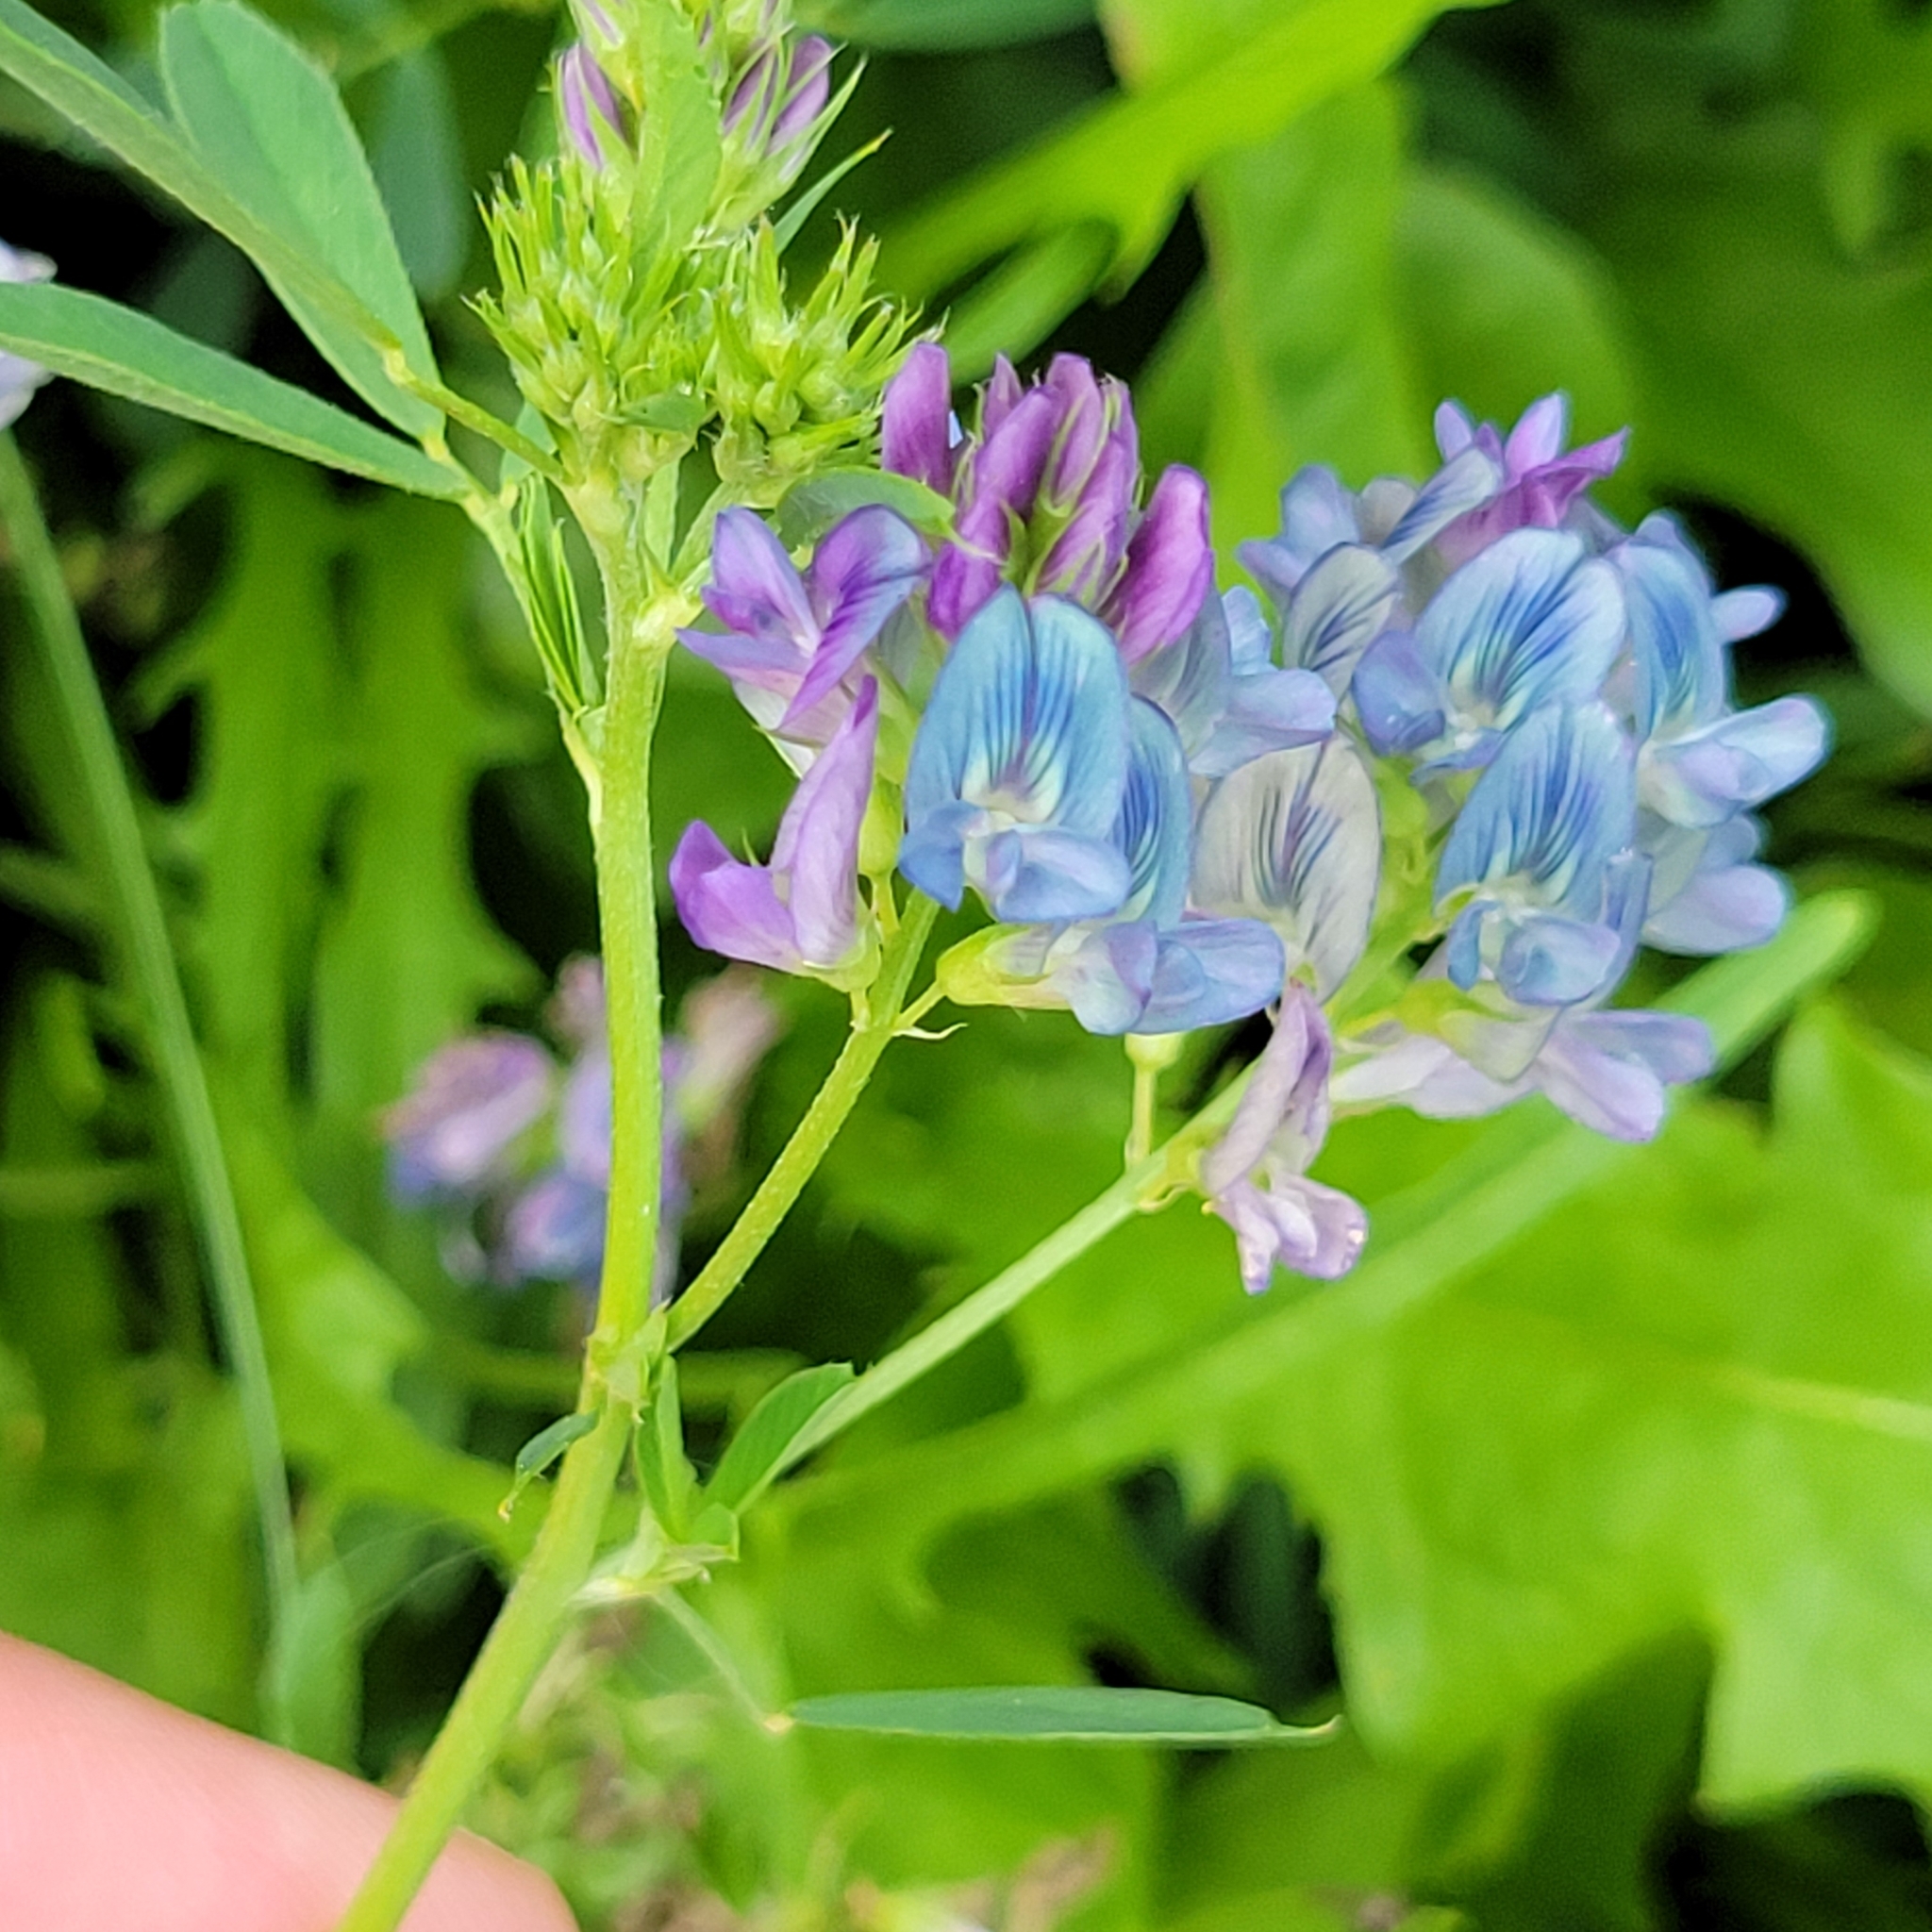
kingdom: Plantae
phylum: Tracheophyta
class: Magnoliopsida
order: Fabales
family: Fabaceae
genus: Medicago
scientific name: Medicago sativa
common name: Alfalfa
